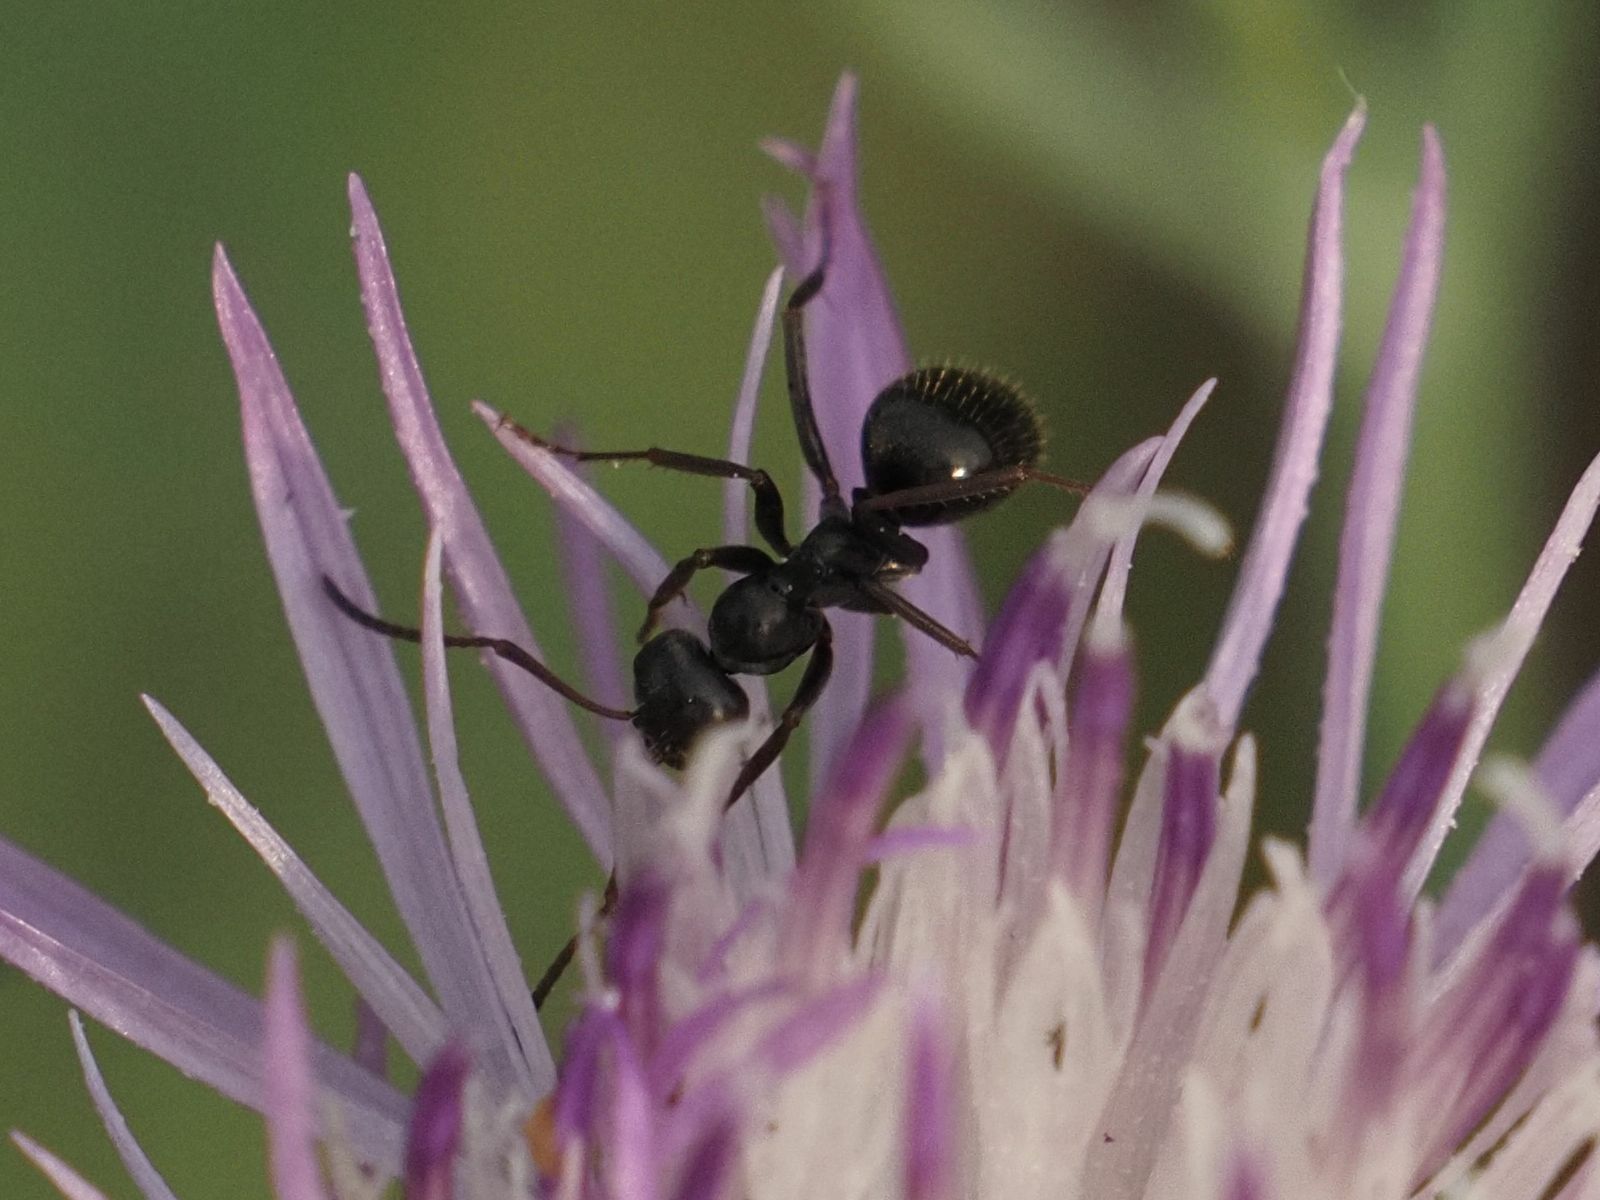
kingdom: Animalia
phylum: Arthropoda
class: Insecta
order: Hymenoptera
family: Formicidae
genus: Formica
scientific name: Formica gagates
